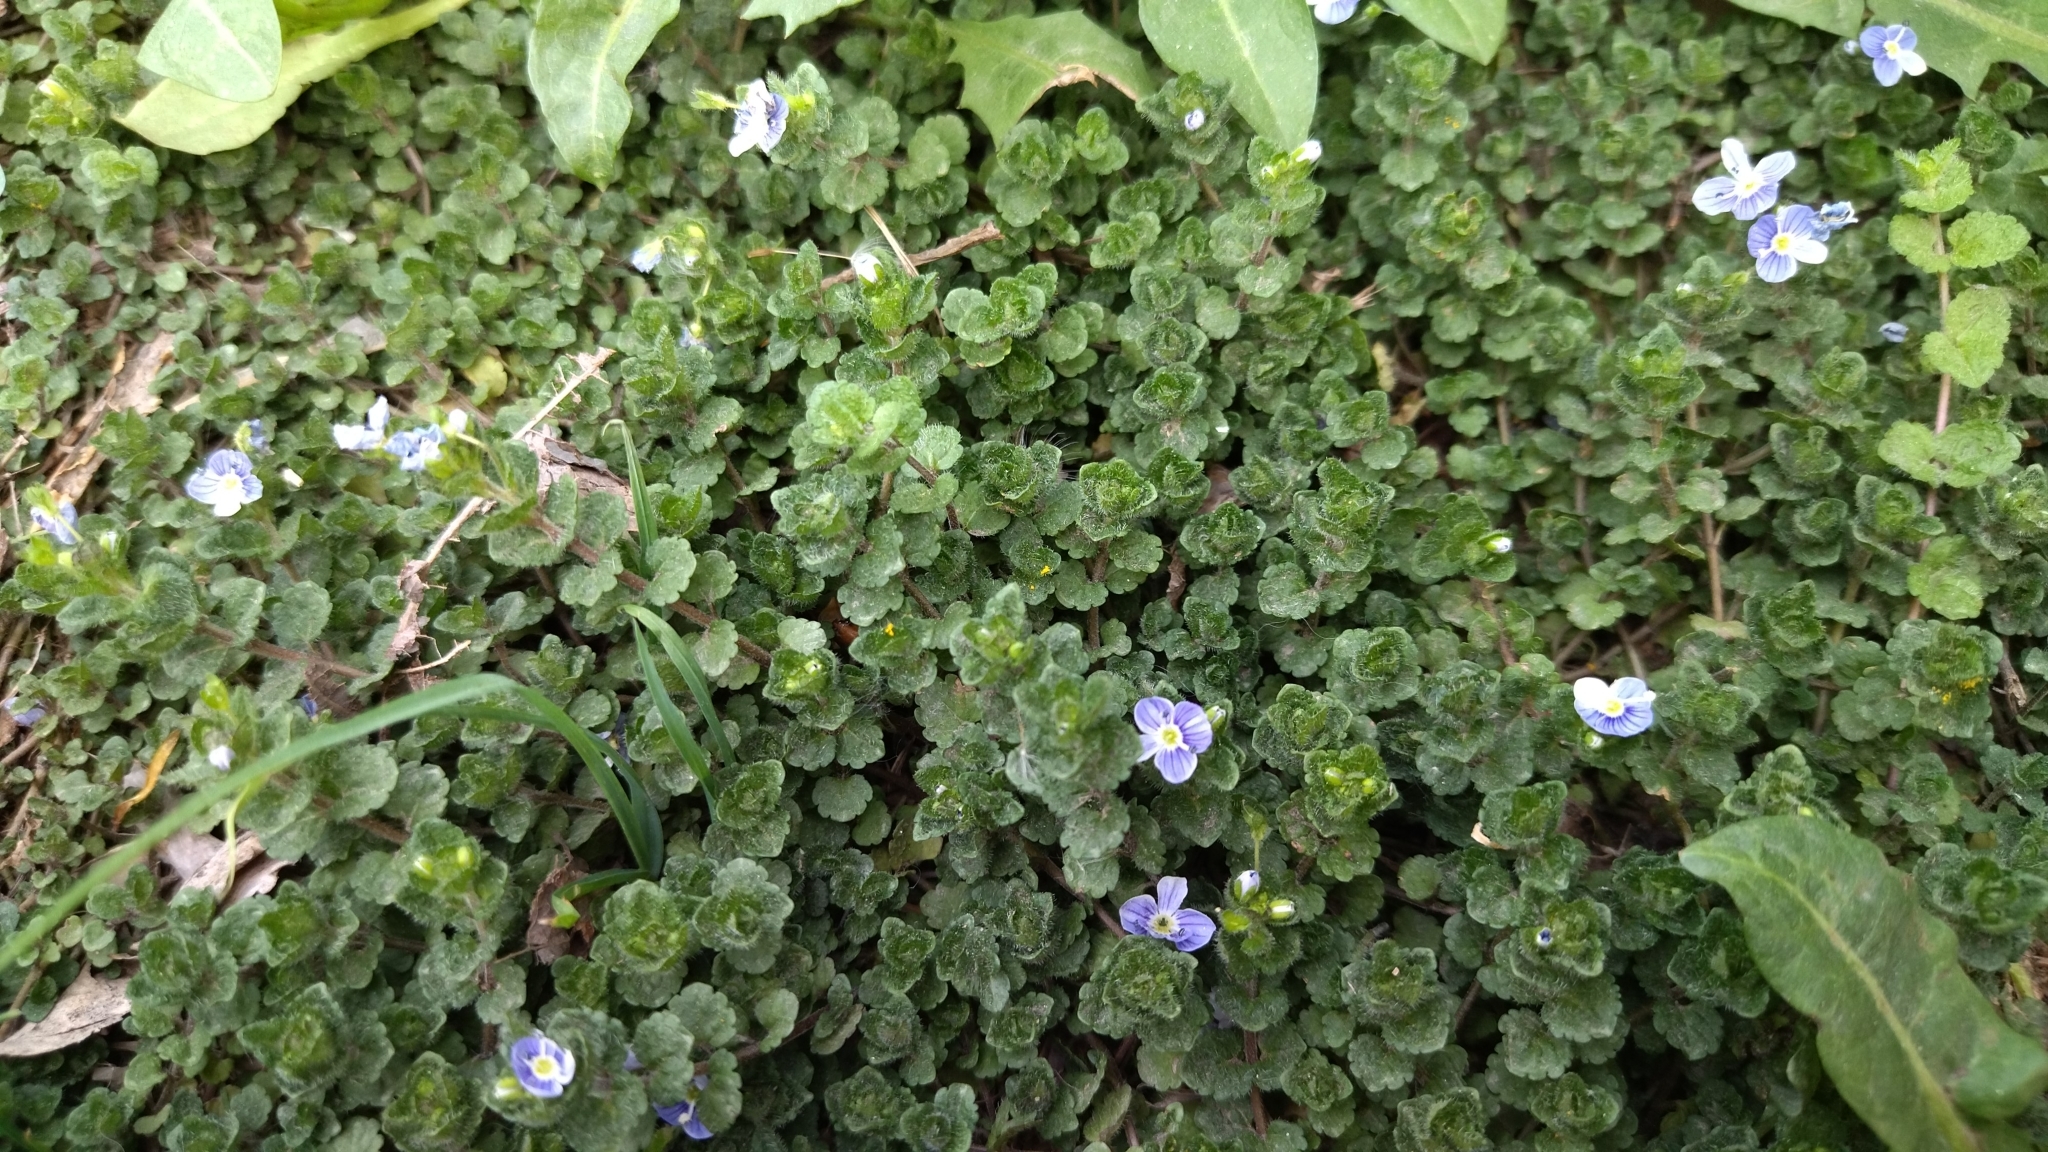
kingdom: Plantae
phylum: Tracheophyta
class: Magnoliopsida
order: Lamiales
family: Plantaginaceae
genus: Veronica
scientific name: Veronica filiformis
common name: Slender speedwell
